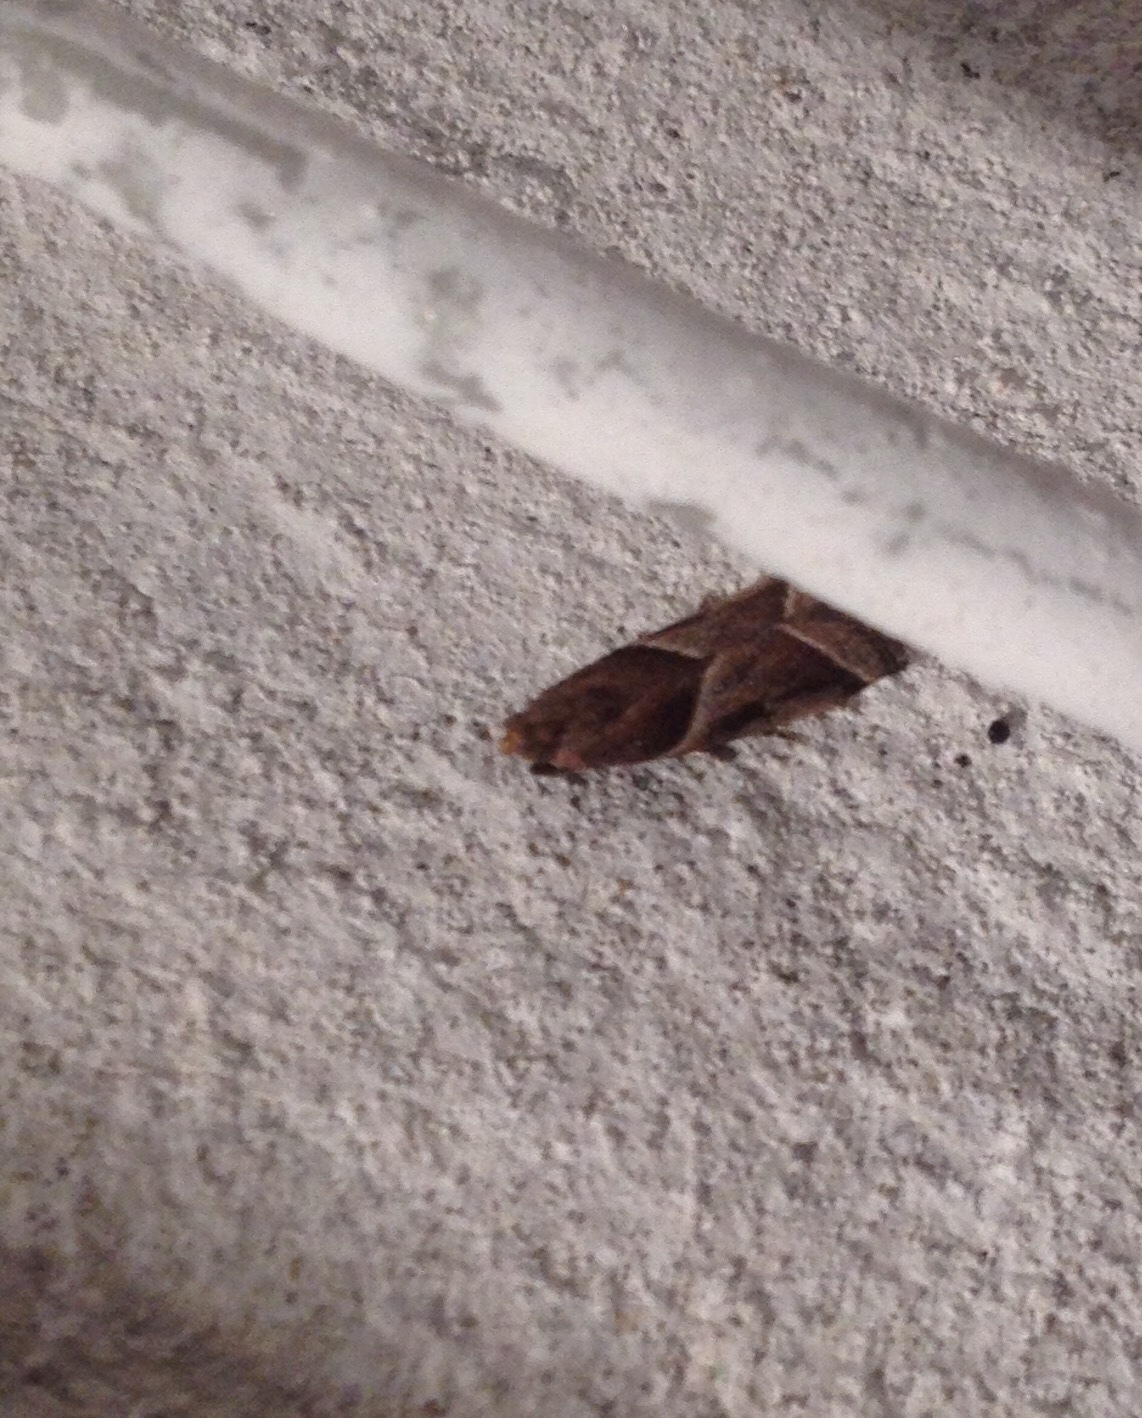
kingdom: Animalia
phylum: Arthropoda
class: Insecta
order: Lepidoptera
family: Pyralidae
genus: Nyctegretis
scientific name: Nyctegretis lineana
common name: Agate knot-horn
